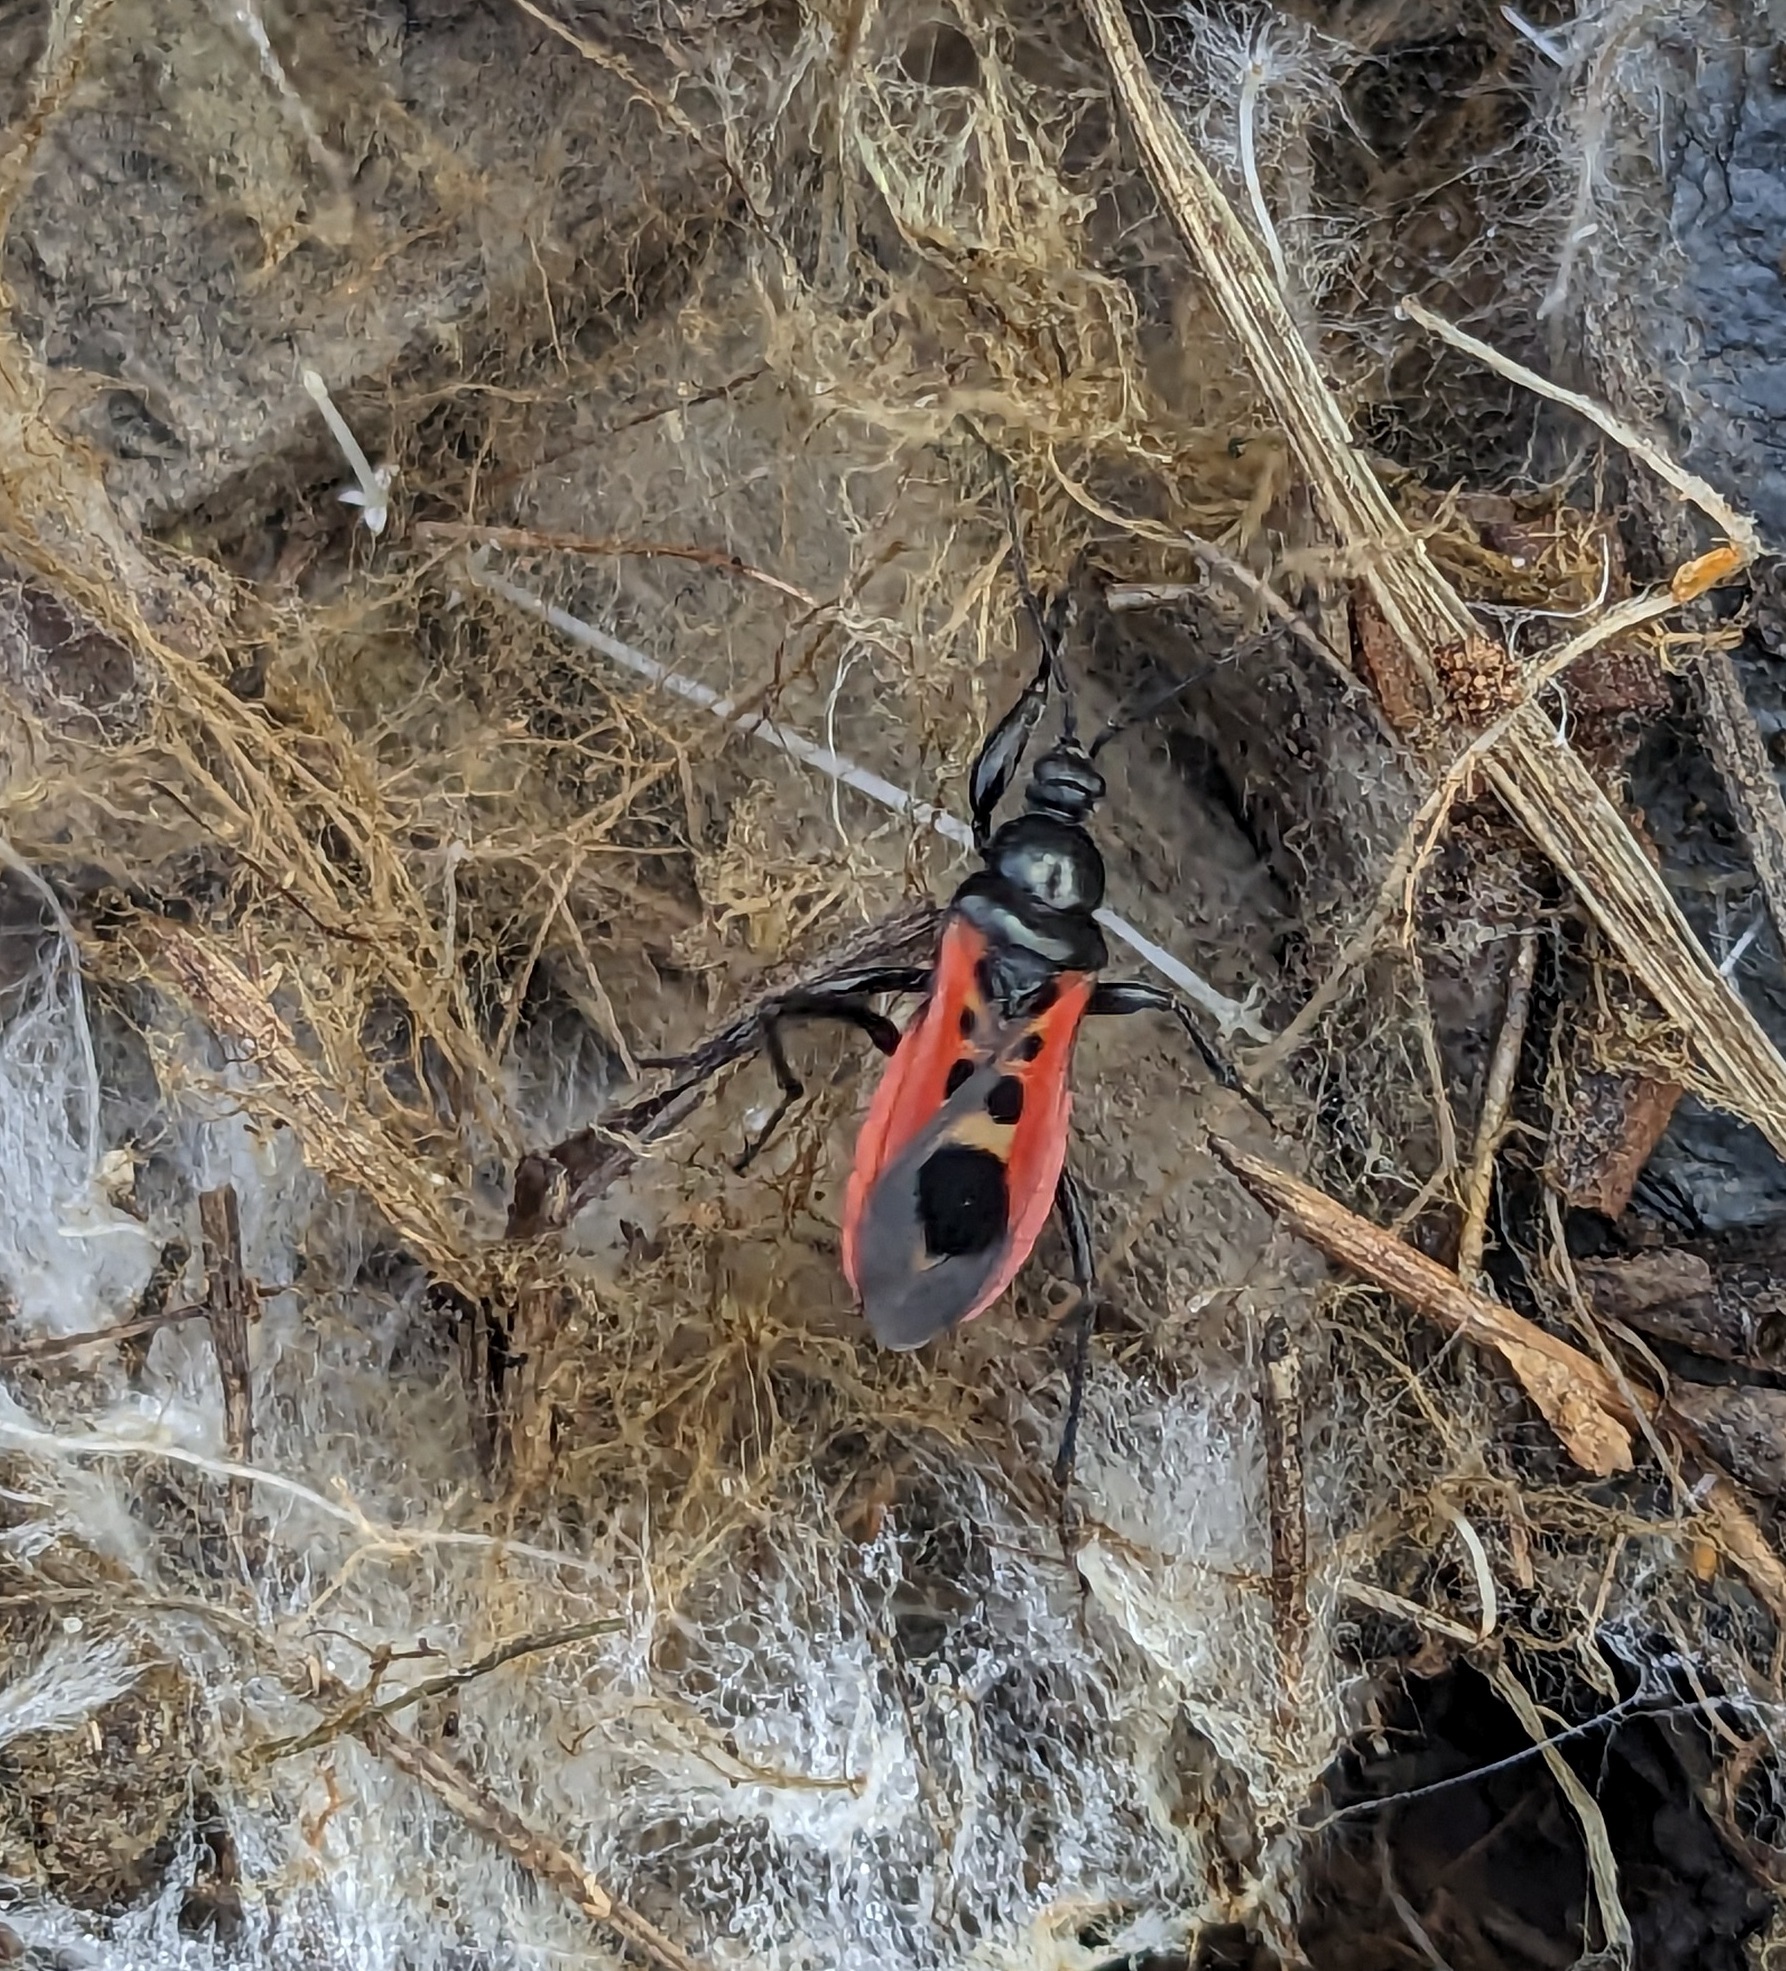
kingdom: Animalia
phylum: Arthropoda
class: Insecta
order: Hemiptera
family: Reduviidae
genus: Peirates
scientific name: Peirates stridulus
